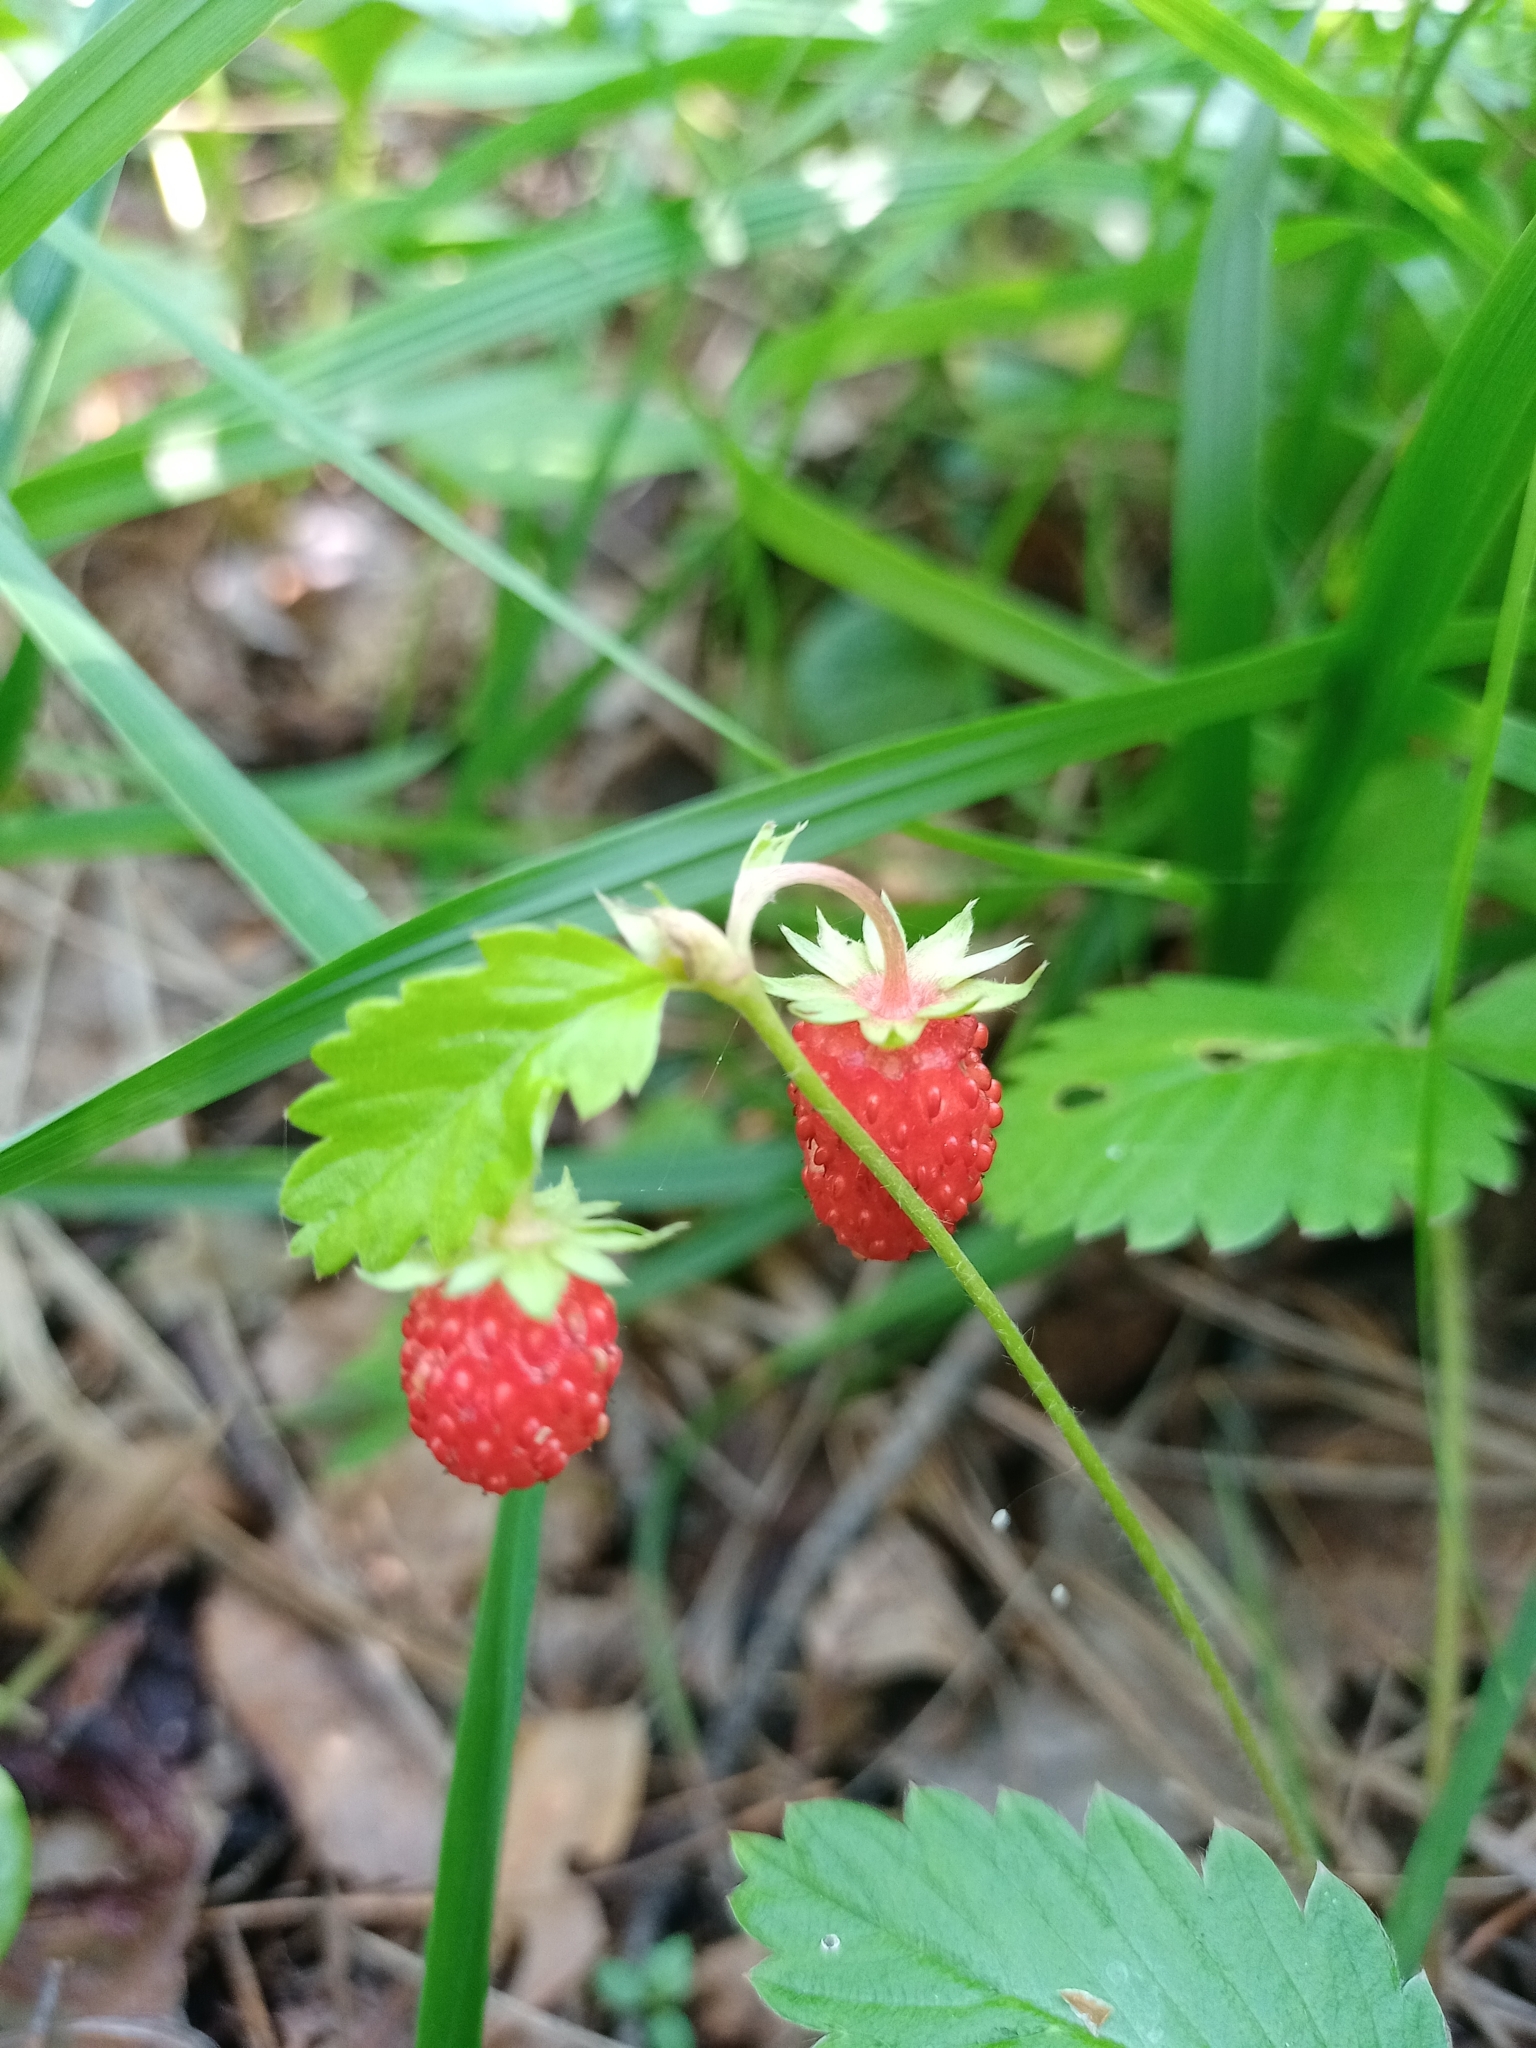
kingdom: Plantae
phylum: Tracheophyta
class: Magnoliopsida
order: Rosales
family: Rosaceae
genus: Fragaria
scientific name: Fragaria vesca
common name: Wild strawberry
